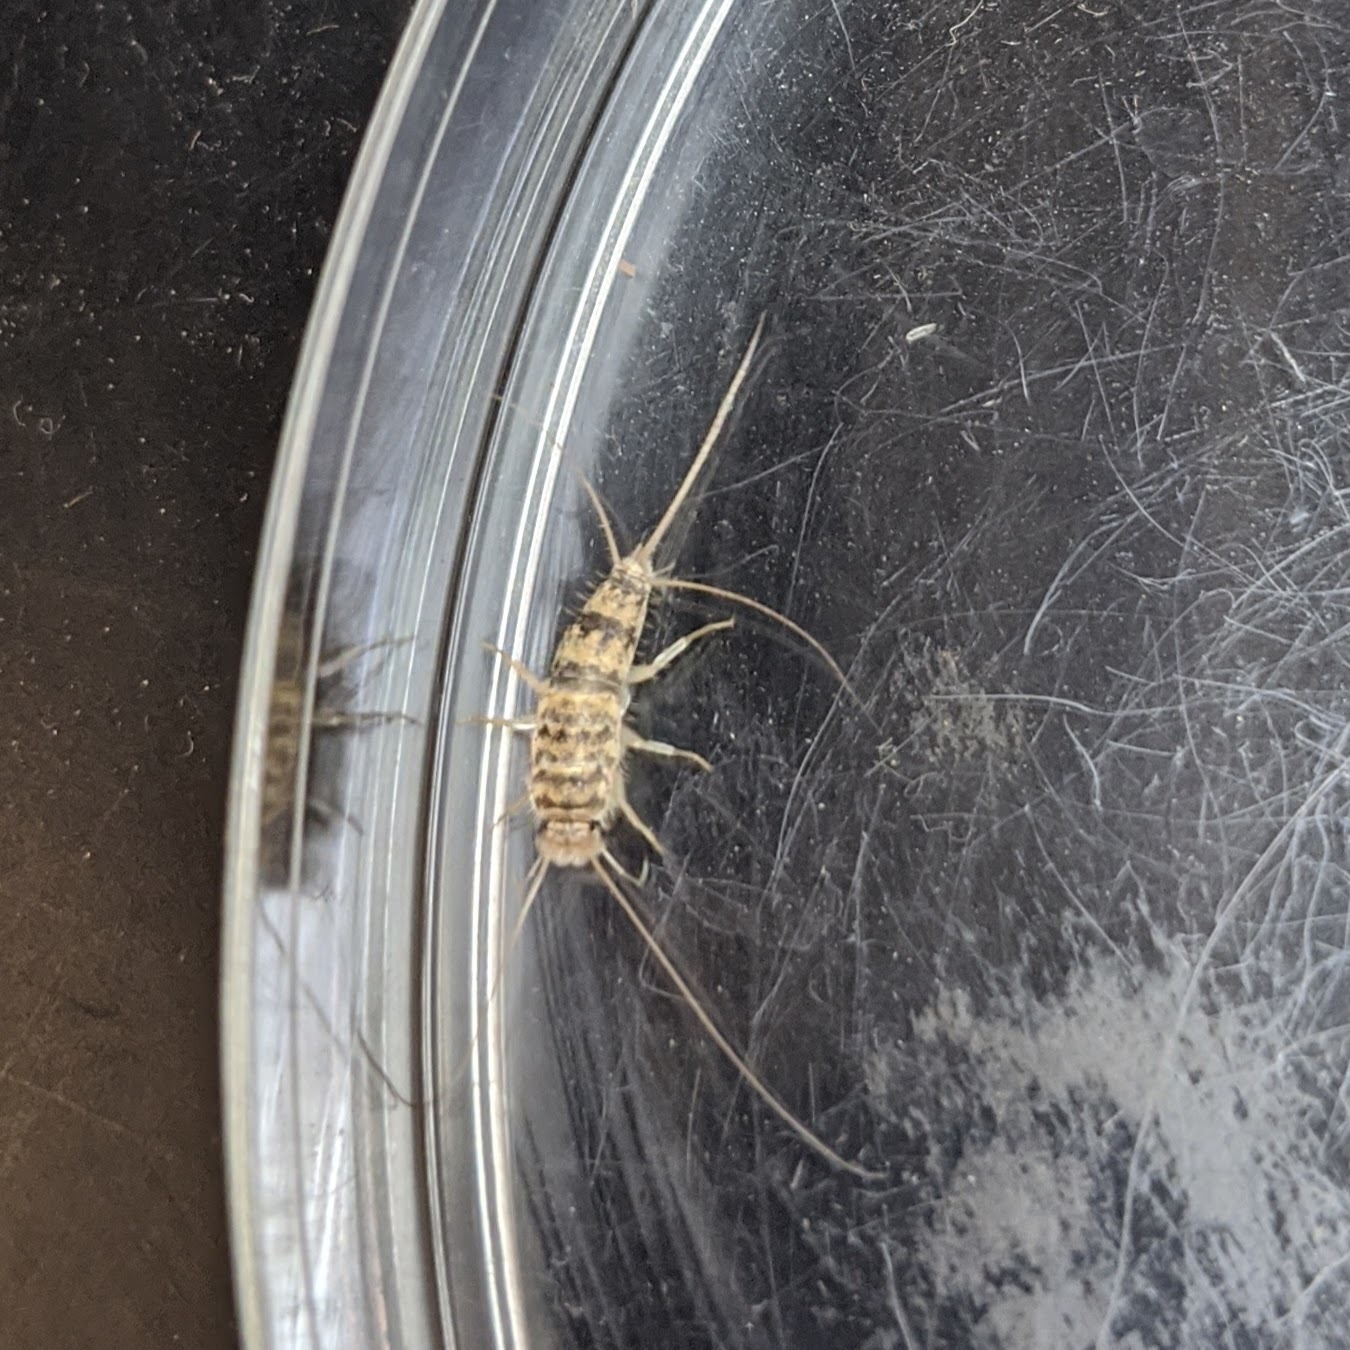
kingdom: Animalia
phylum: Arthropoda
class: Insecta
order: Zygentoma
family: Lepismatidae
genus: Thermobia
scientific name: Thermobia domestica
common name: Firebrat
